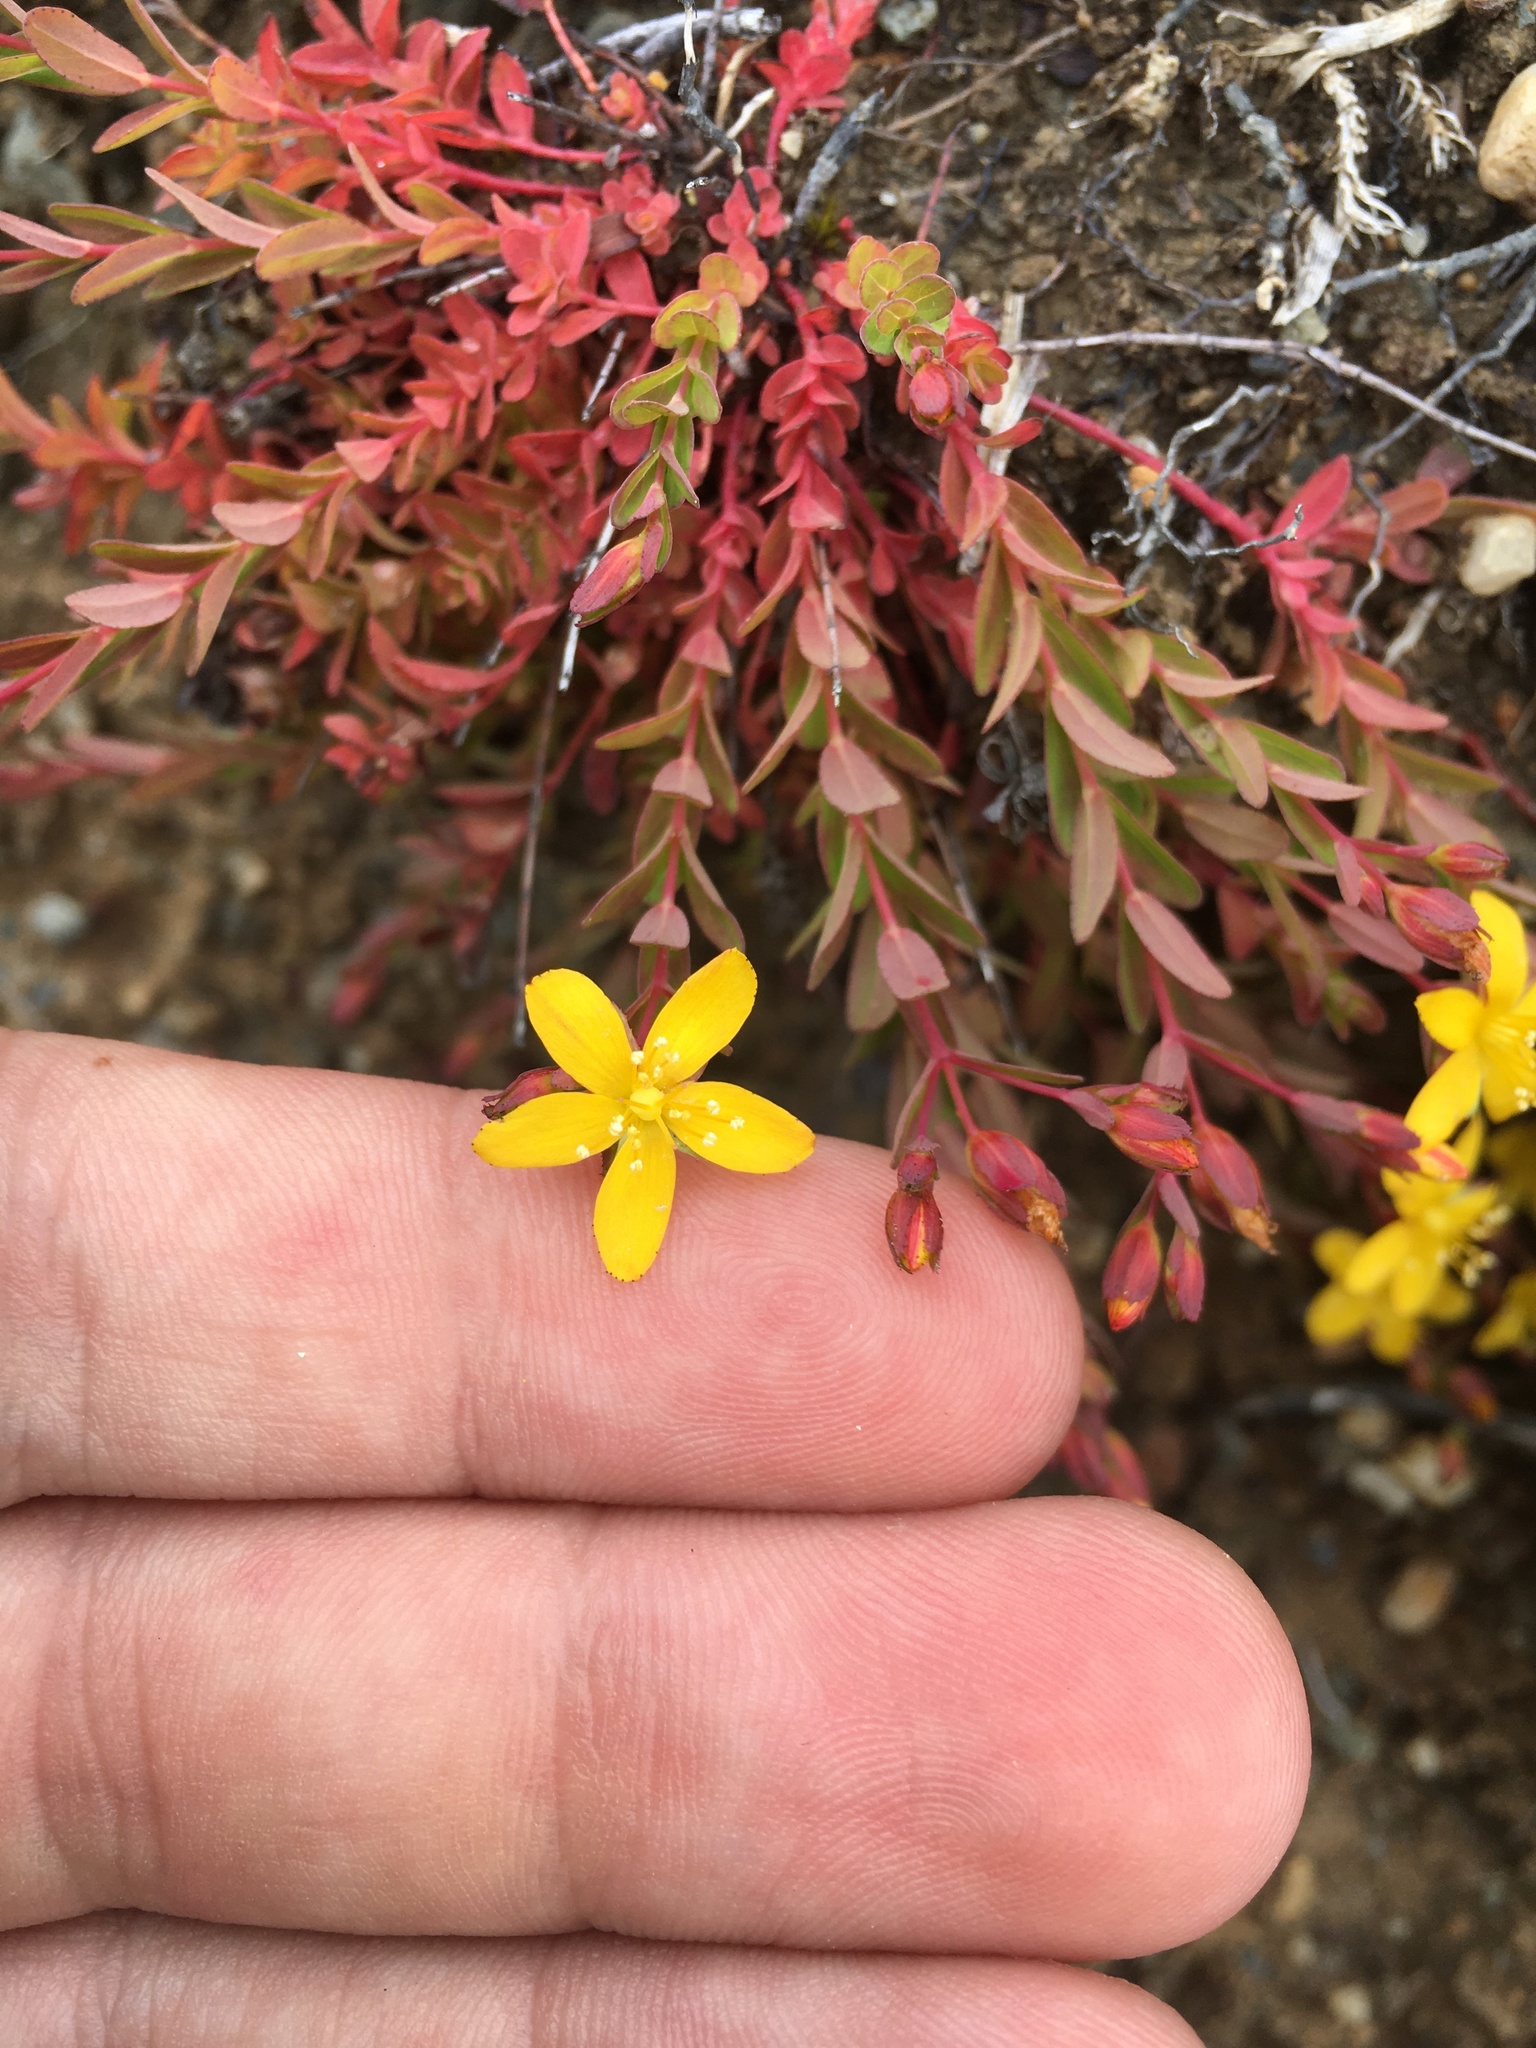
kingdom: Plantae
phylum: Tracheophyta
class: Magnoliopsida
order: Malpighiales
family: Hypericaceae
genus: Hypericum
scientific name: Hypericum humifusum
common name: Trailing st. john's-wort
